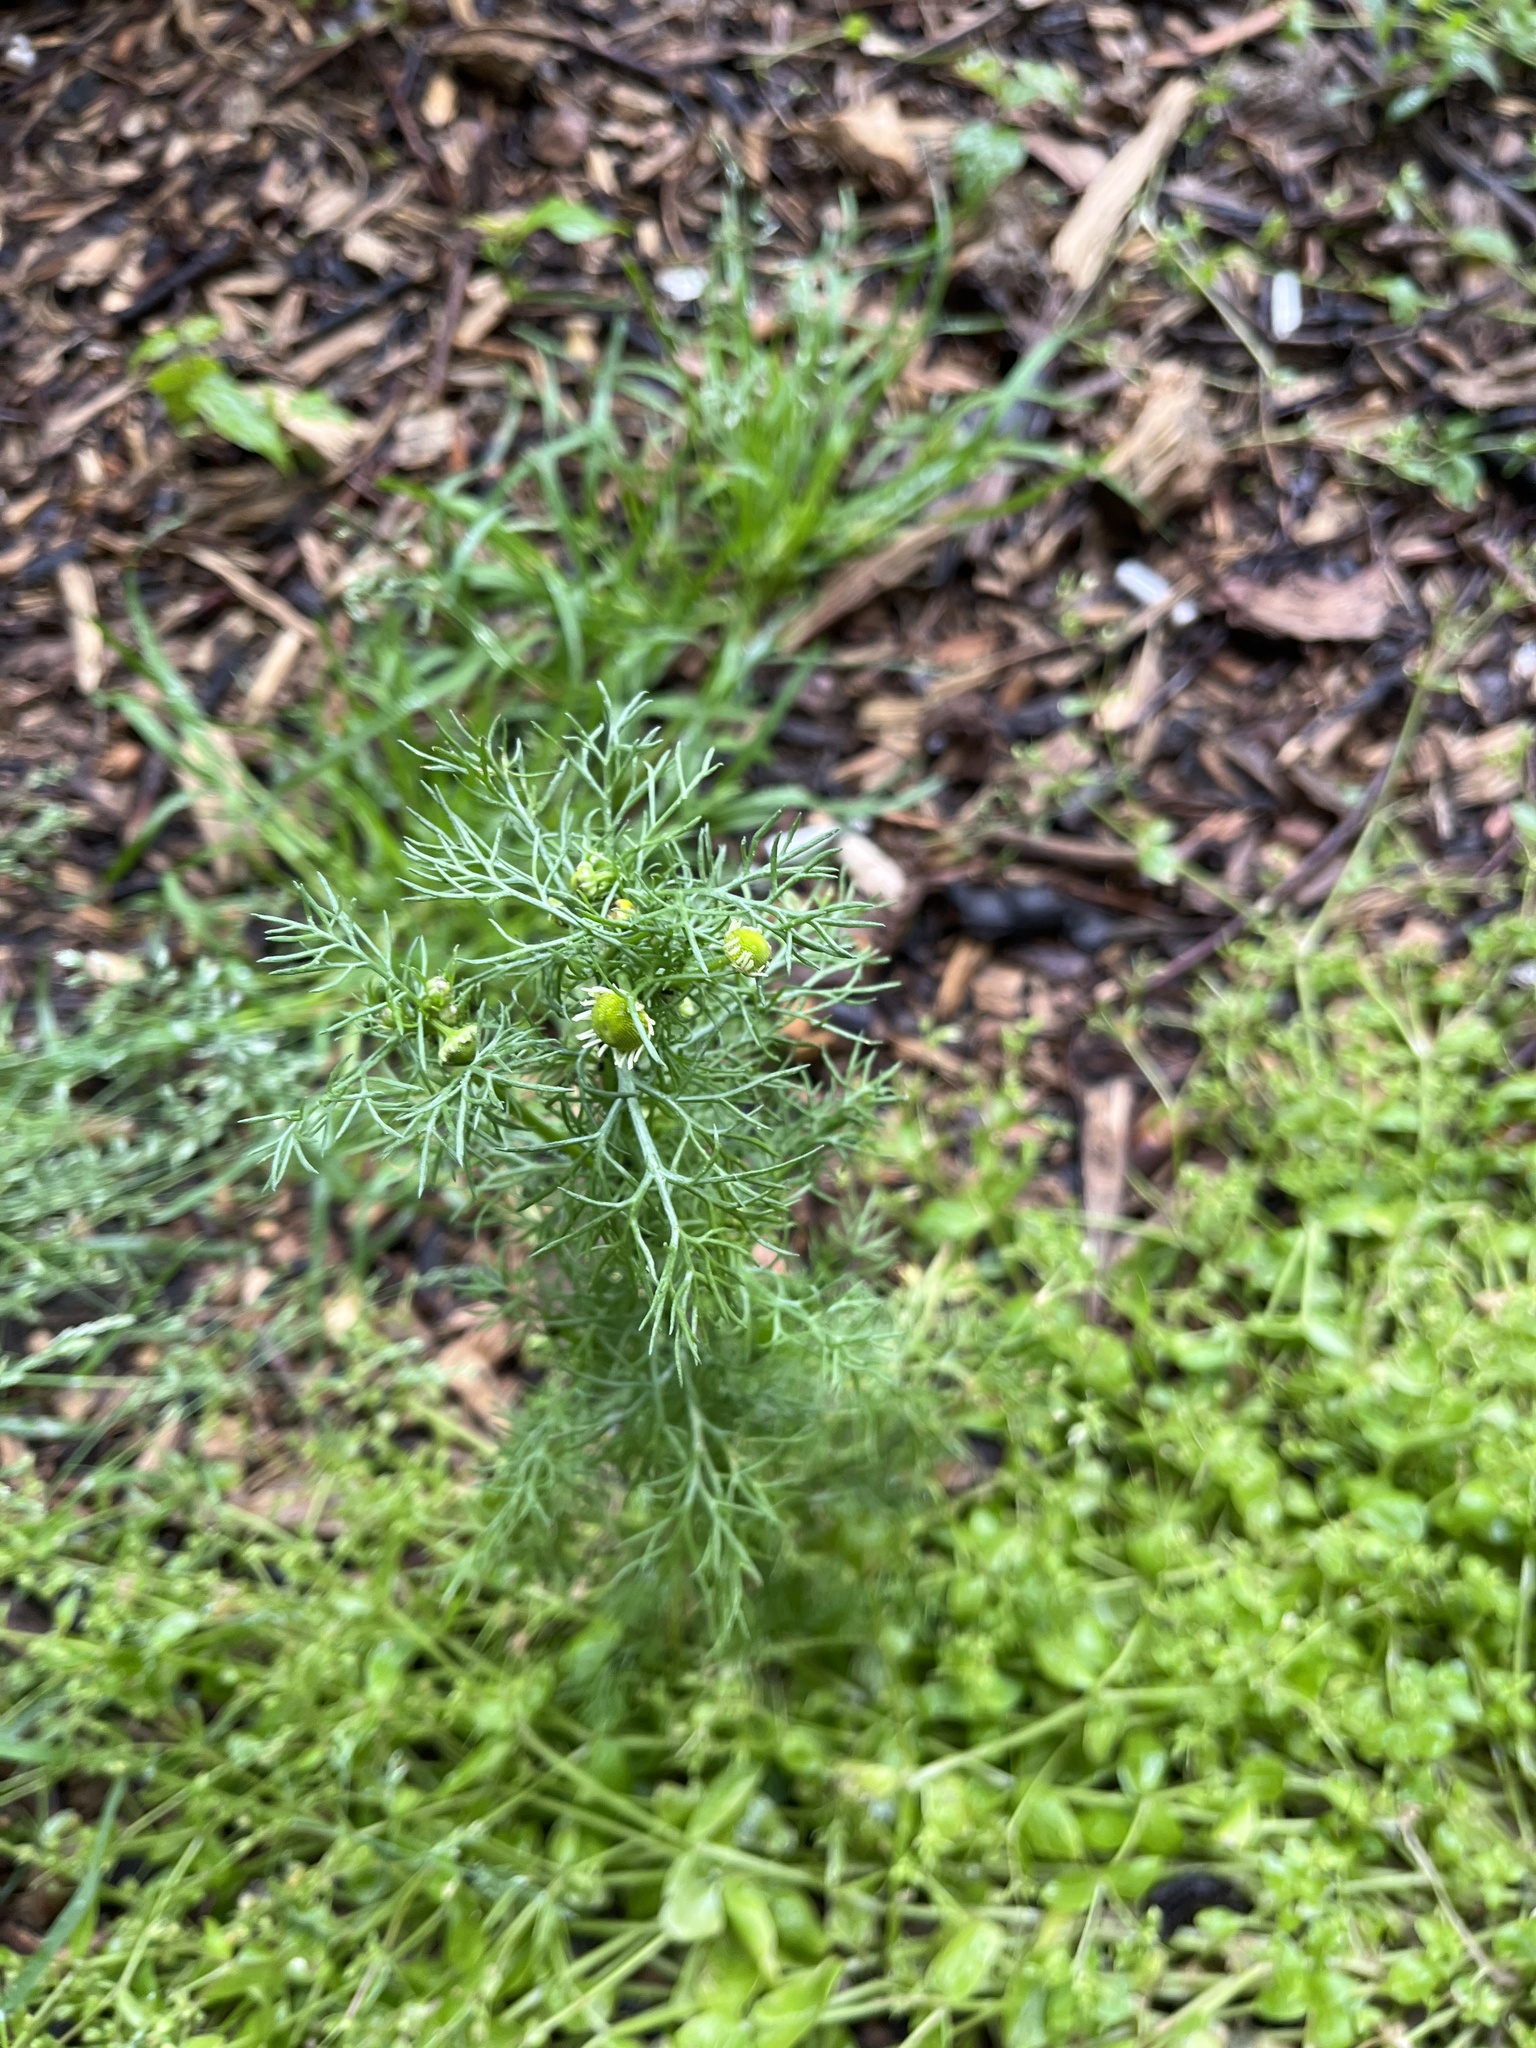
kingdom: Plantae
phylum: Tracheophyta
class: Magnoliopsida
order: Asterales
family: Asteraceae
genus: Matricaria
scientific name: Matricaria discoidea
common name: Disc mayweed
